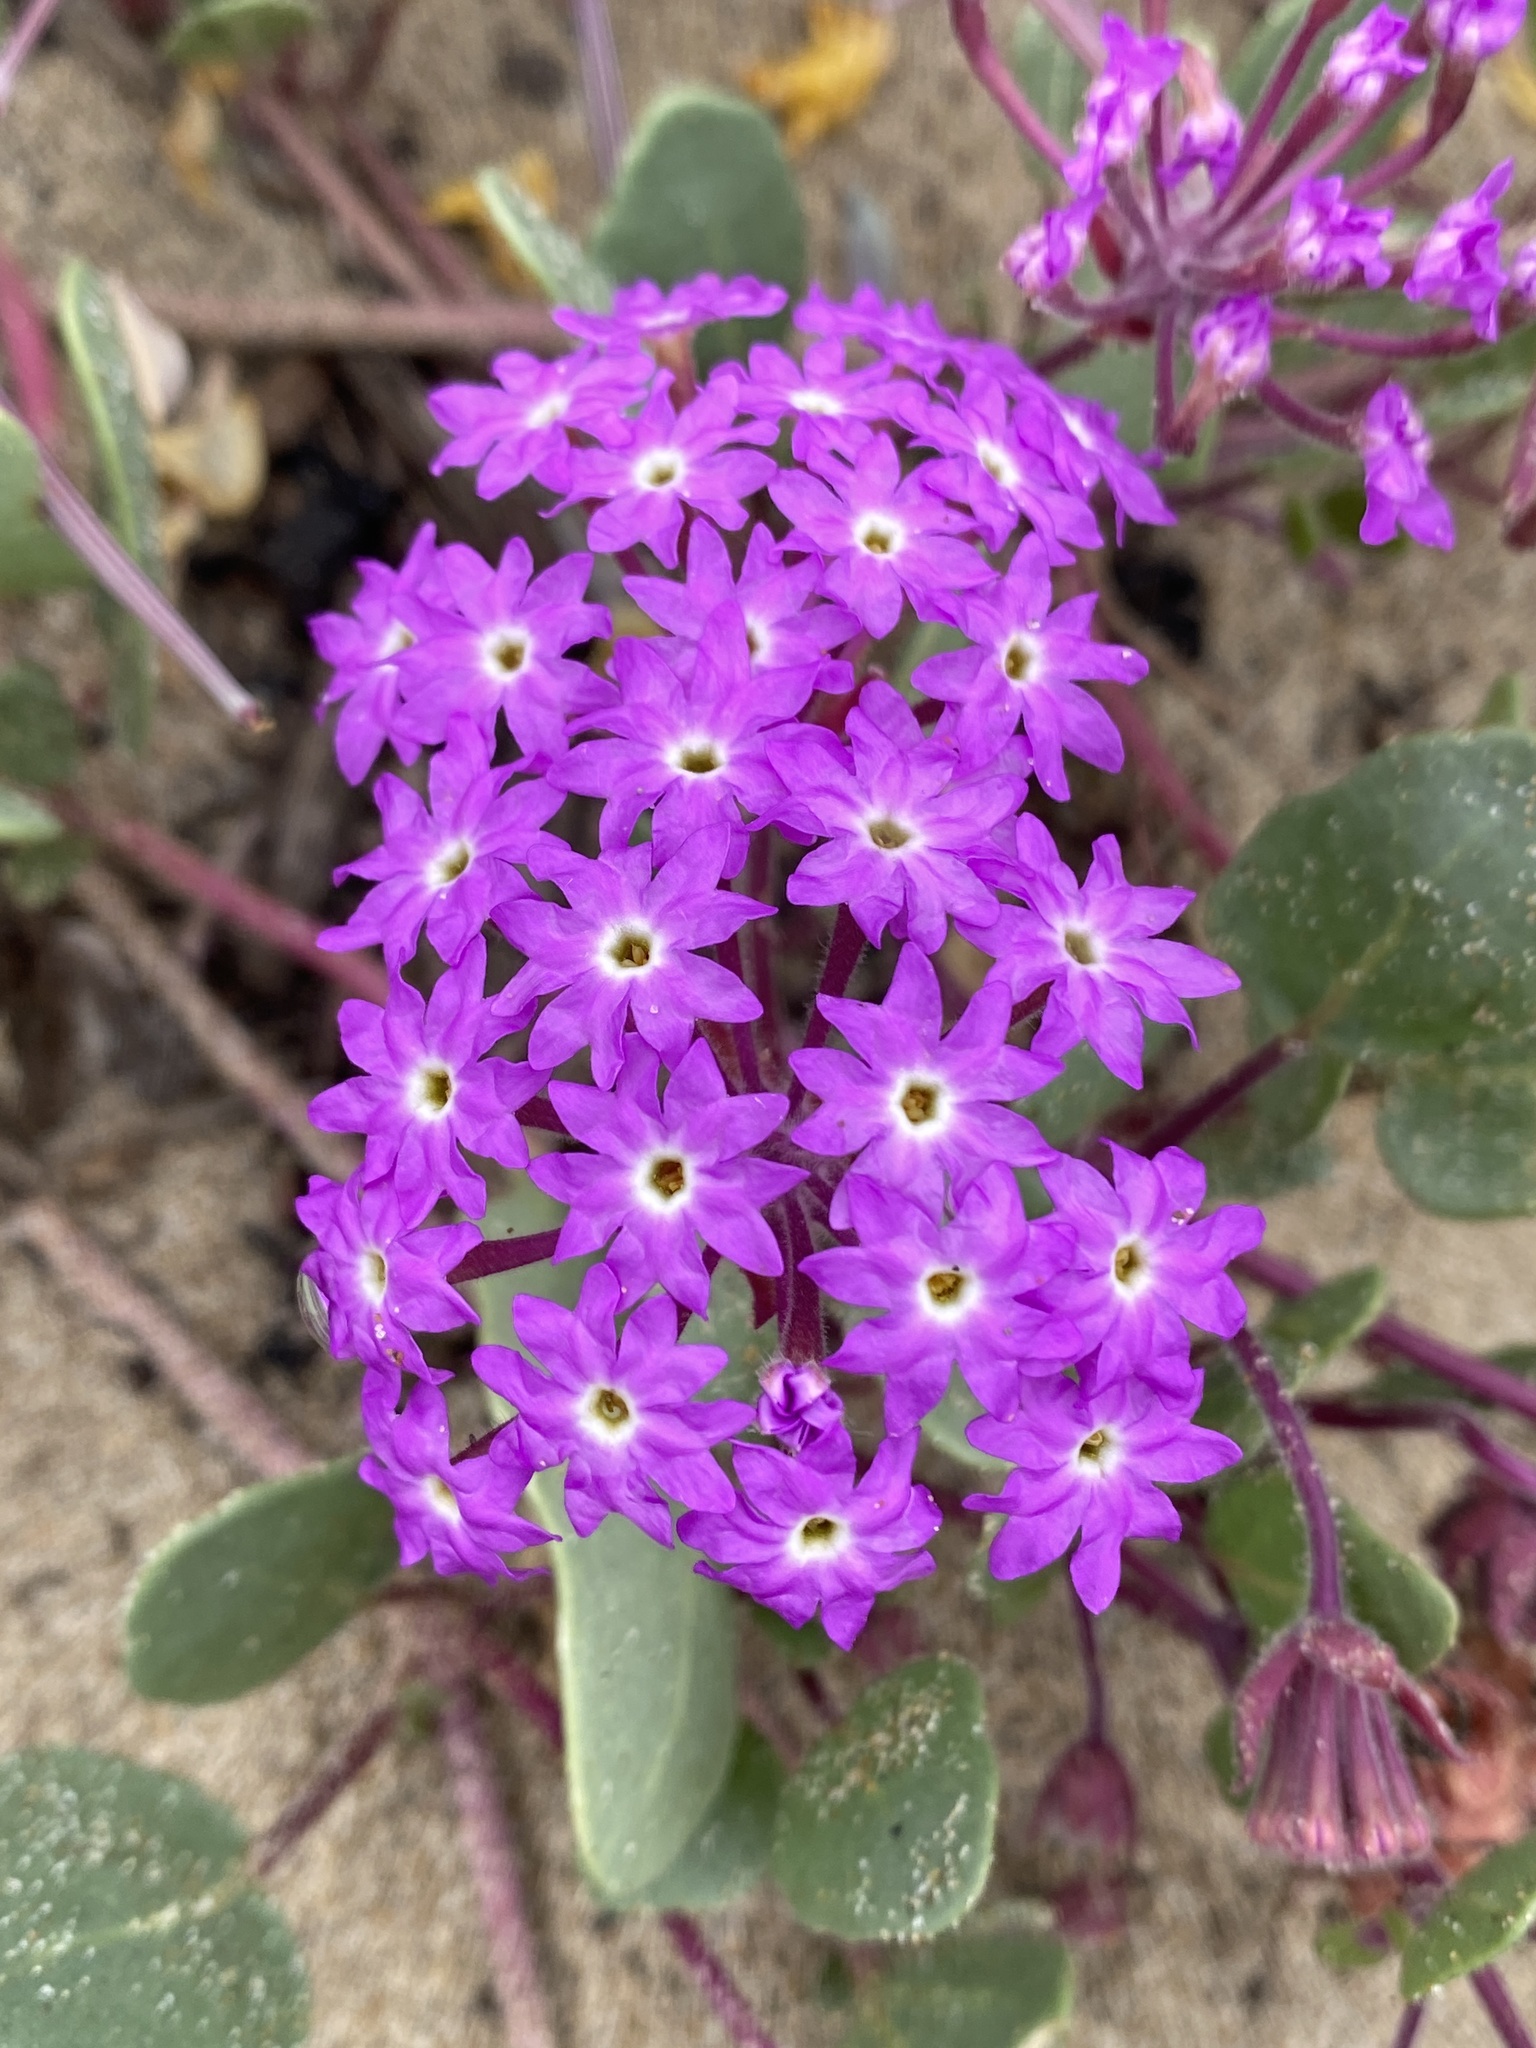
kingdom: Plantae
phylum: Tracheophyta
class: Magnoliopsida
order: Caryophyllales
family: Nyctaginaceae
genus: Abronia
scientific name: Abronia umbellata
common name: Sand-verbena
